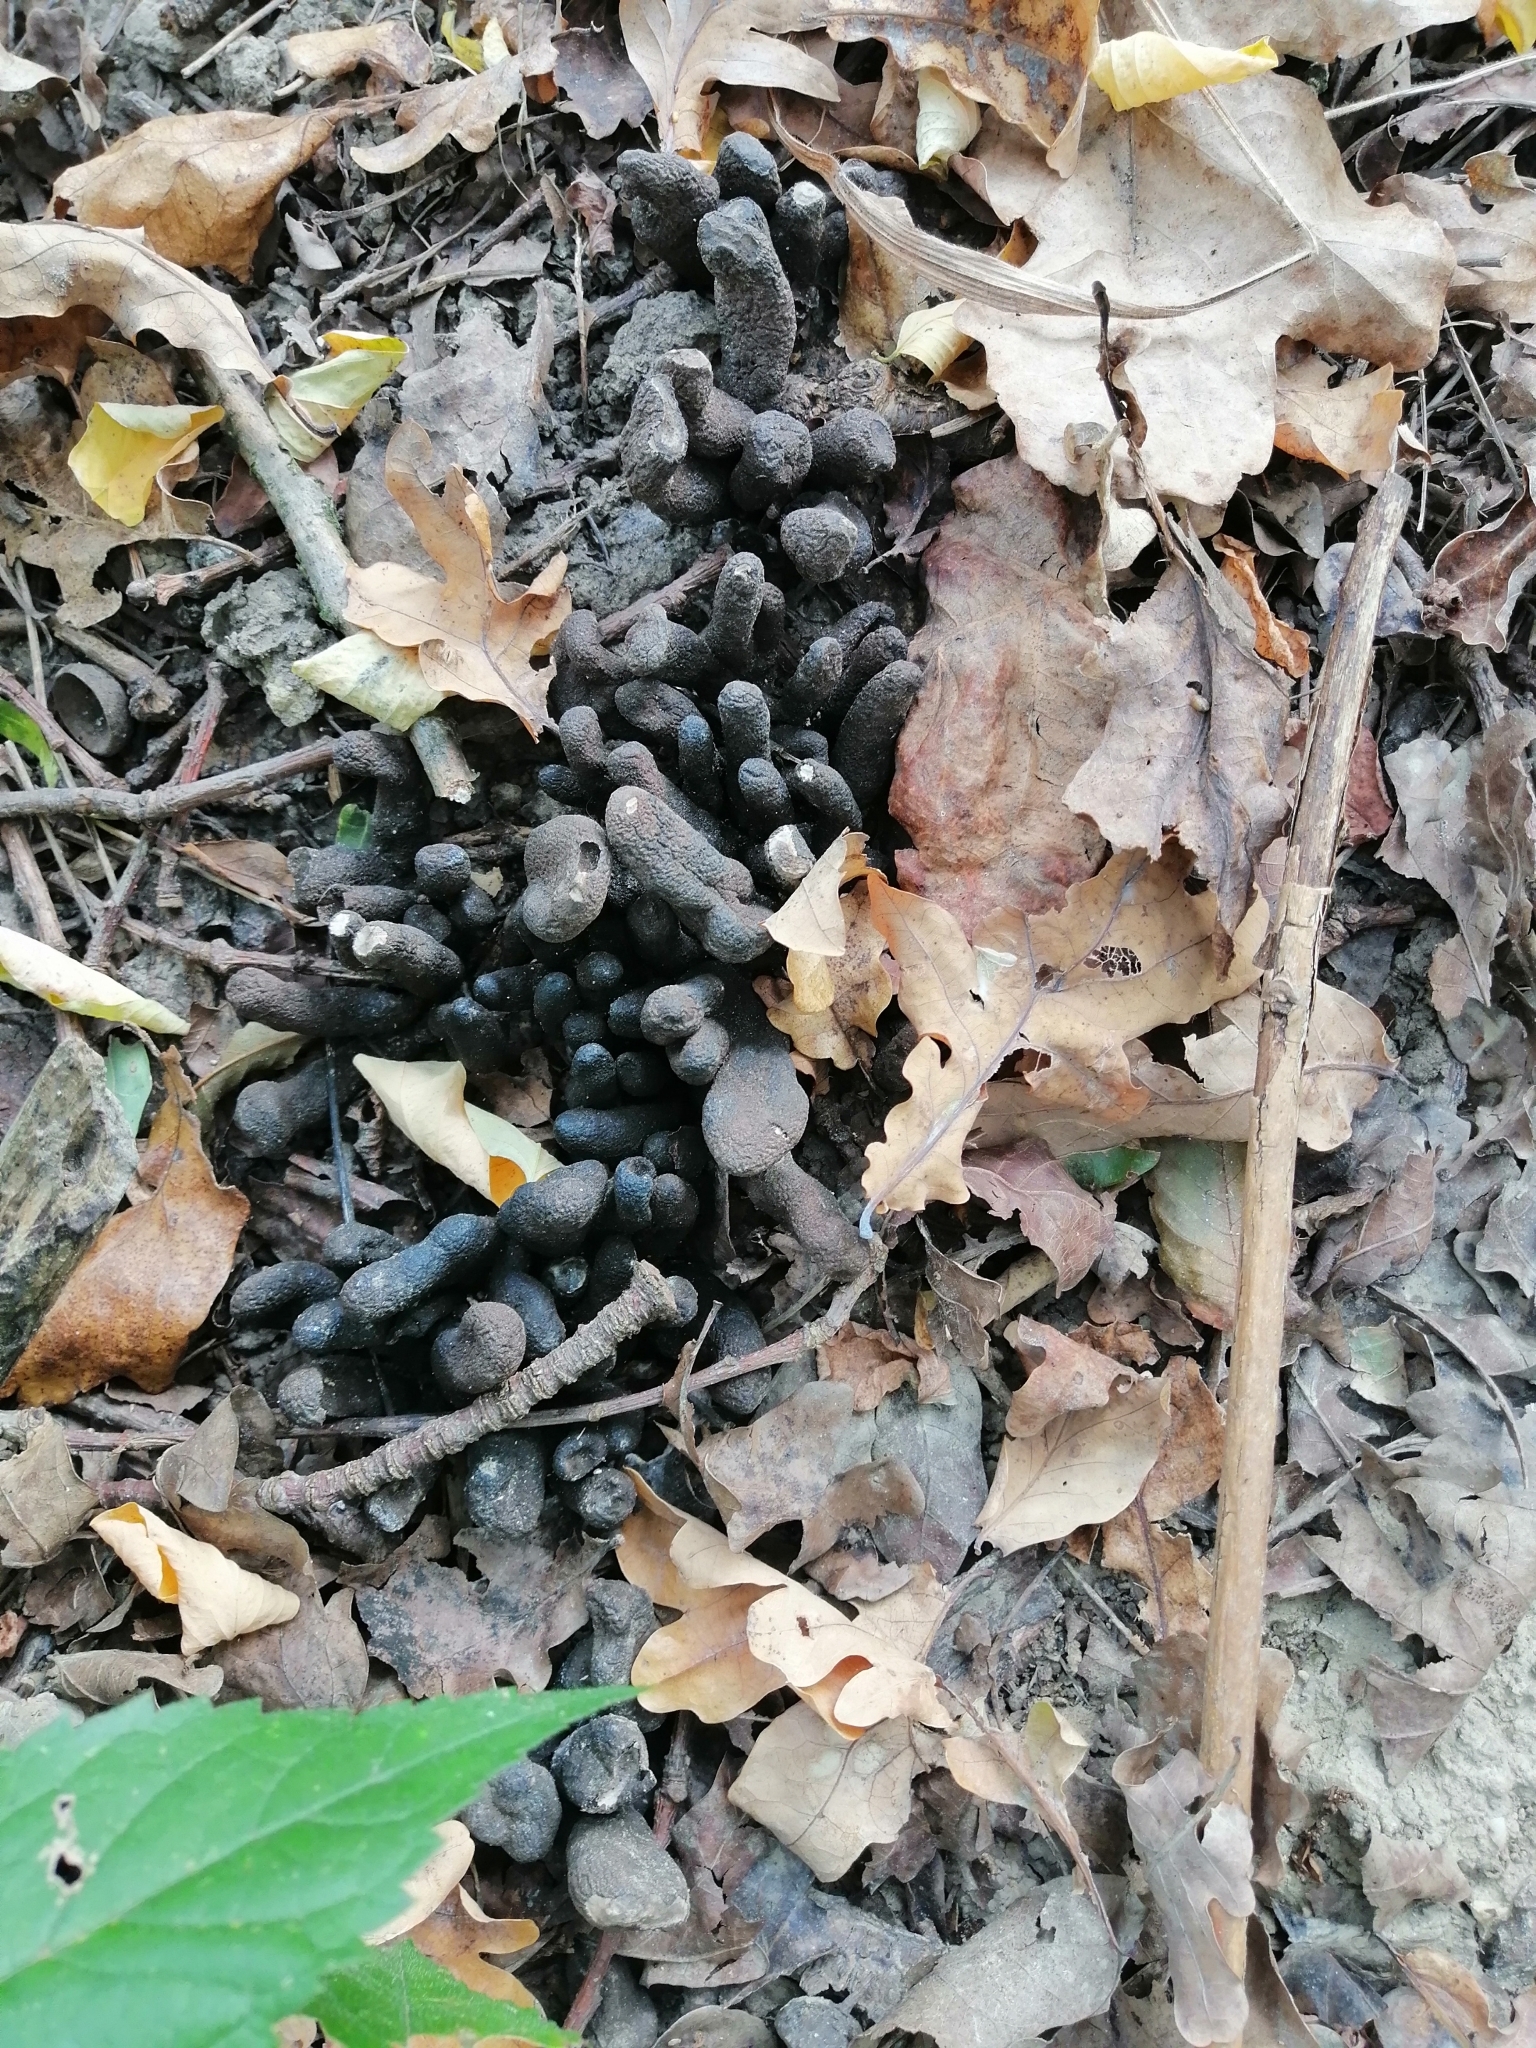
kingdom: Fungi
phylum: Ascomycota
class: Sordariomycetes
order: Xylariales
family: Xylariaceae
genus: Xylaria
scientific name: Xylaria polymorpha
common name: Dead man's fingers
